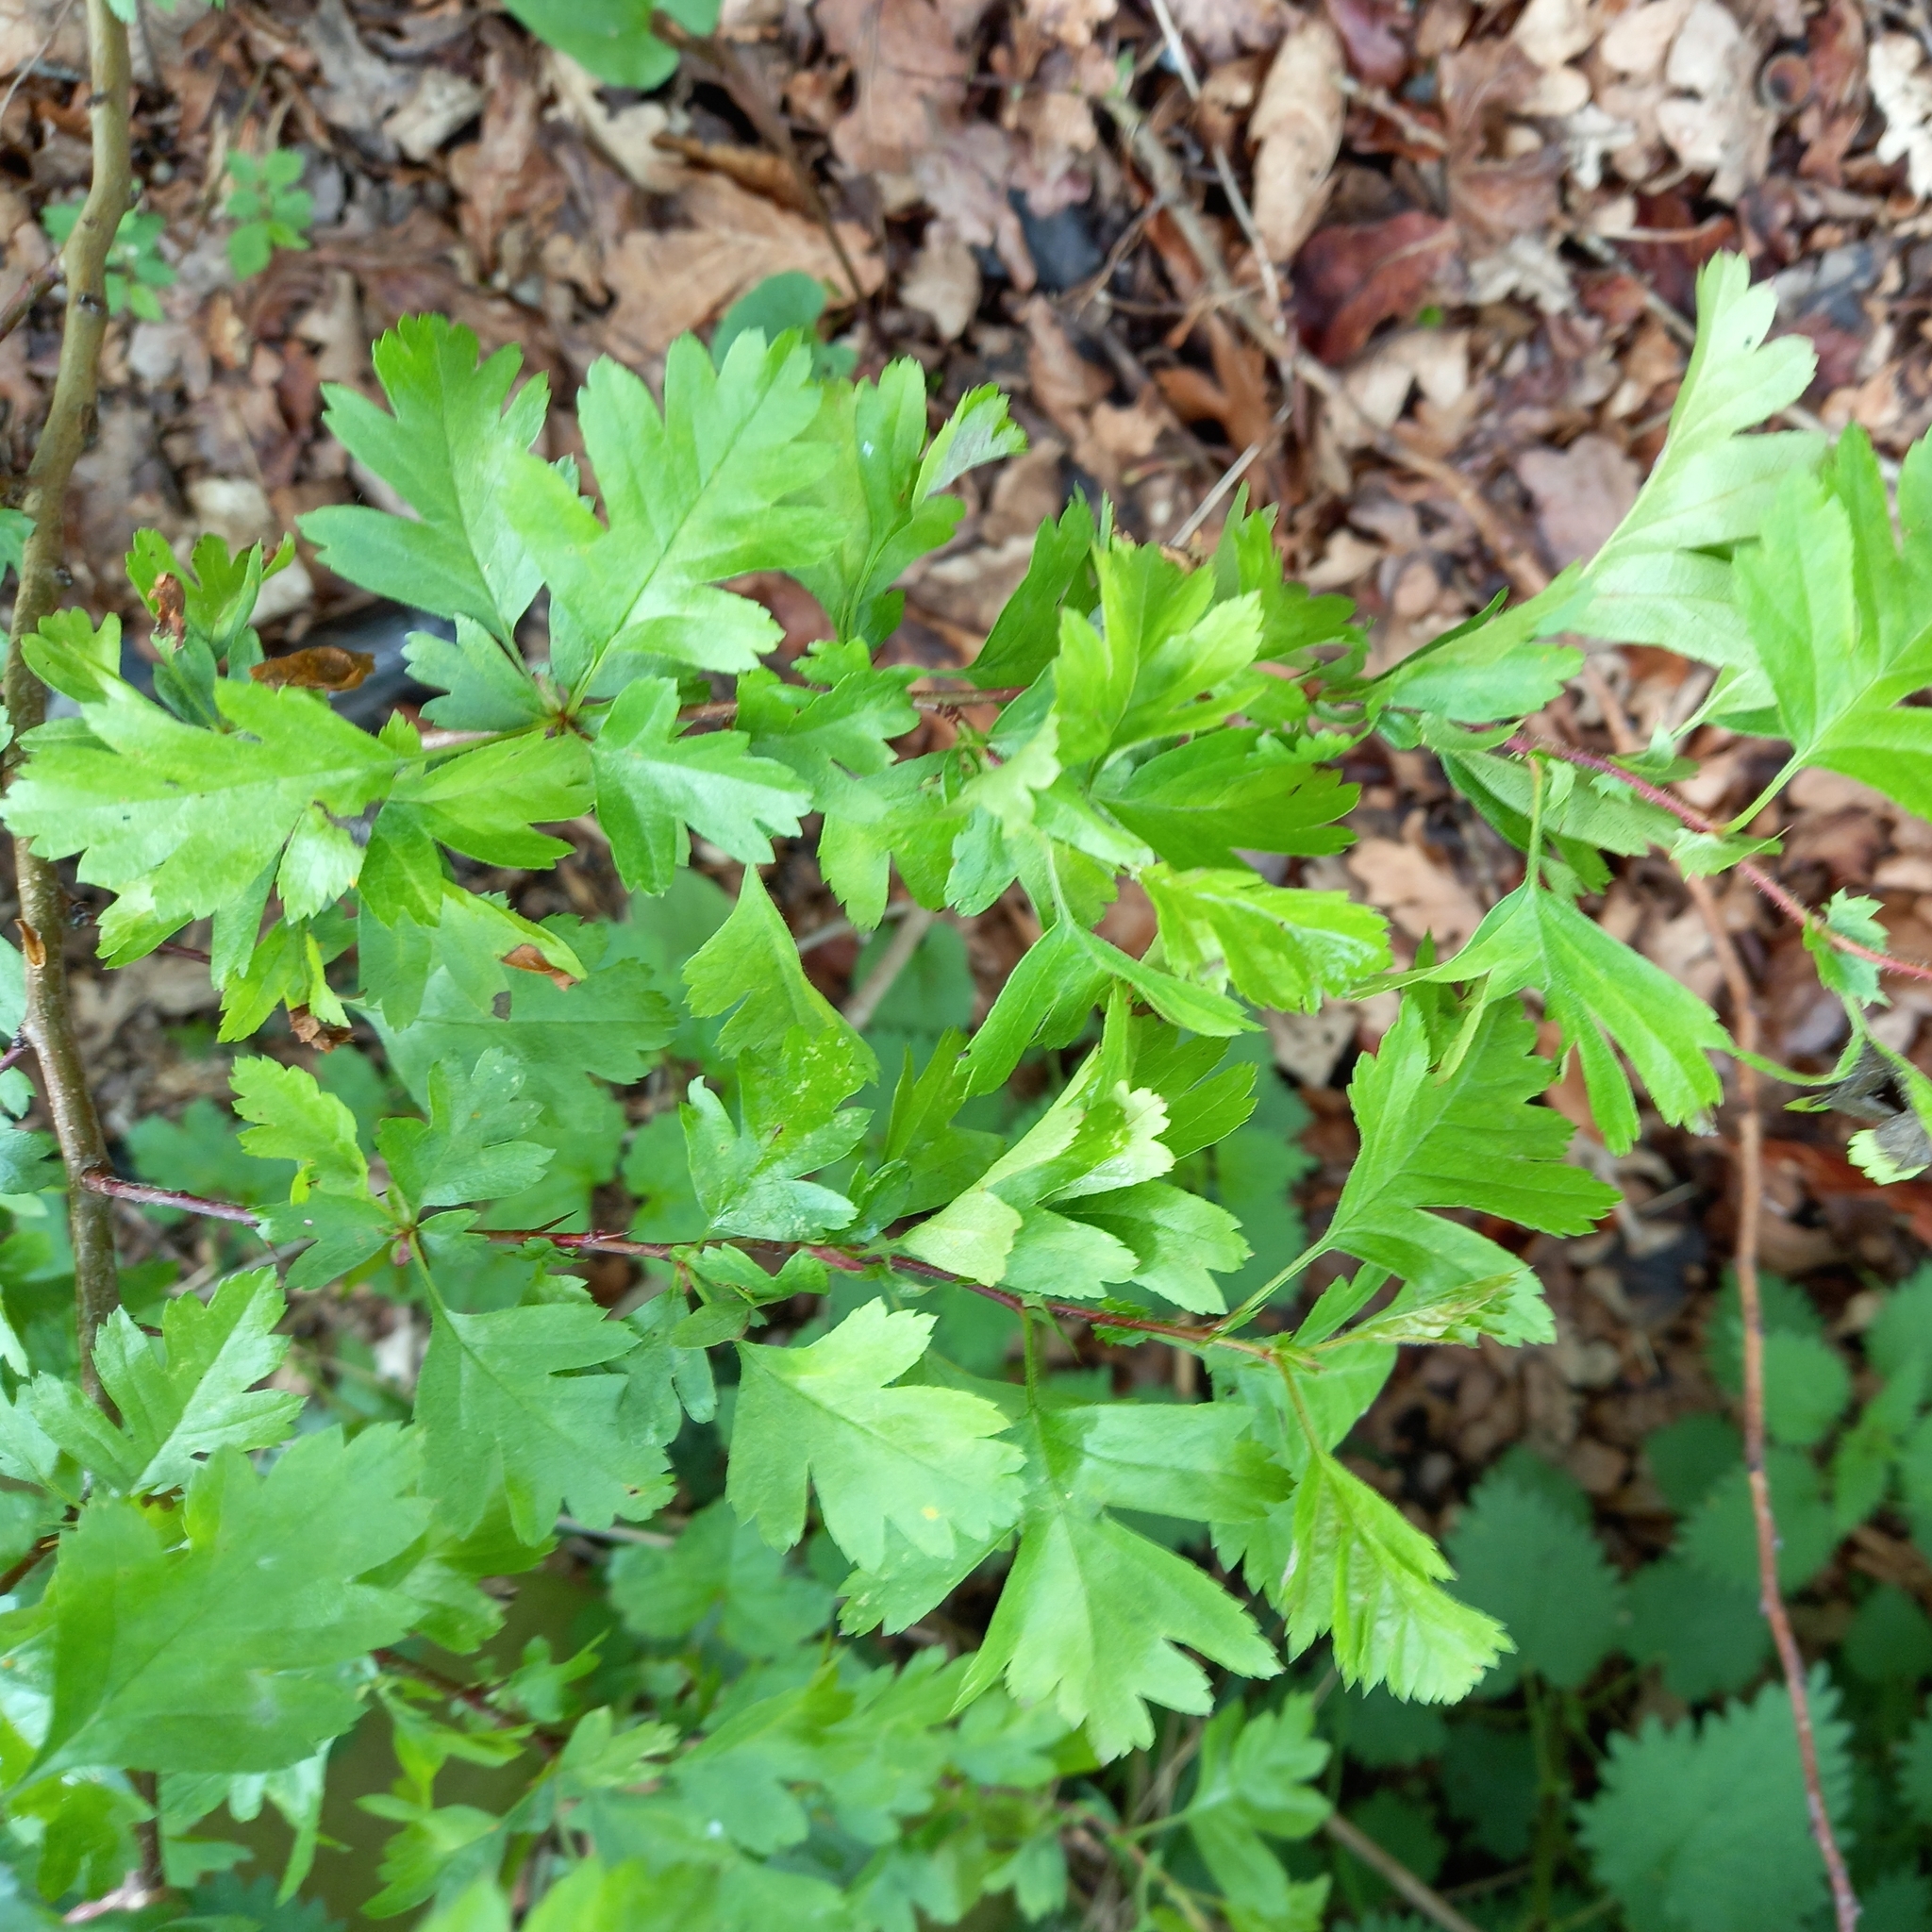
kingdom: Plantae
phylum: Tracheophyta
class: Magnoliopsida
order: Rosales
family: Rosaceae
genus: Crataegus
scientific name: Crataegus monogyna
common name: Hawthorn
